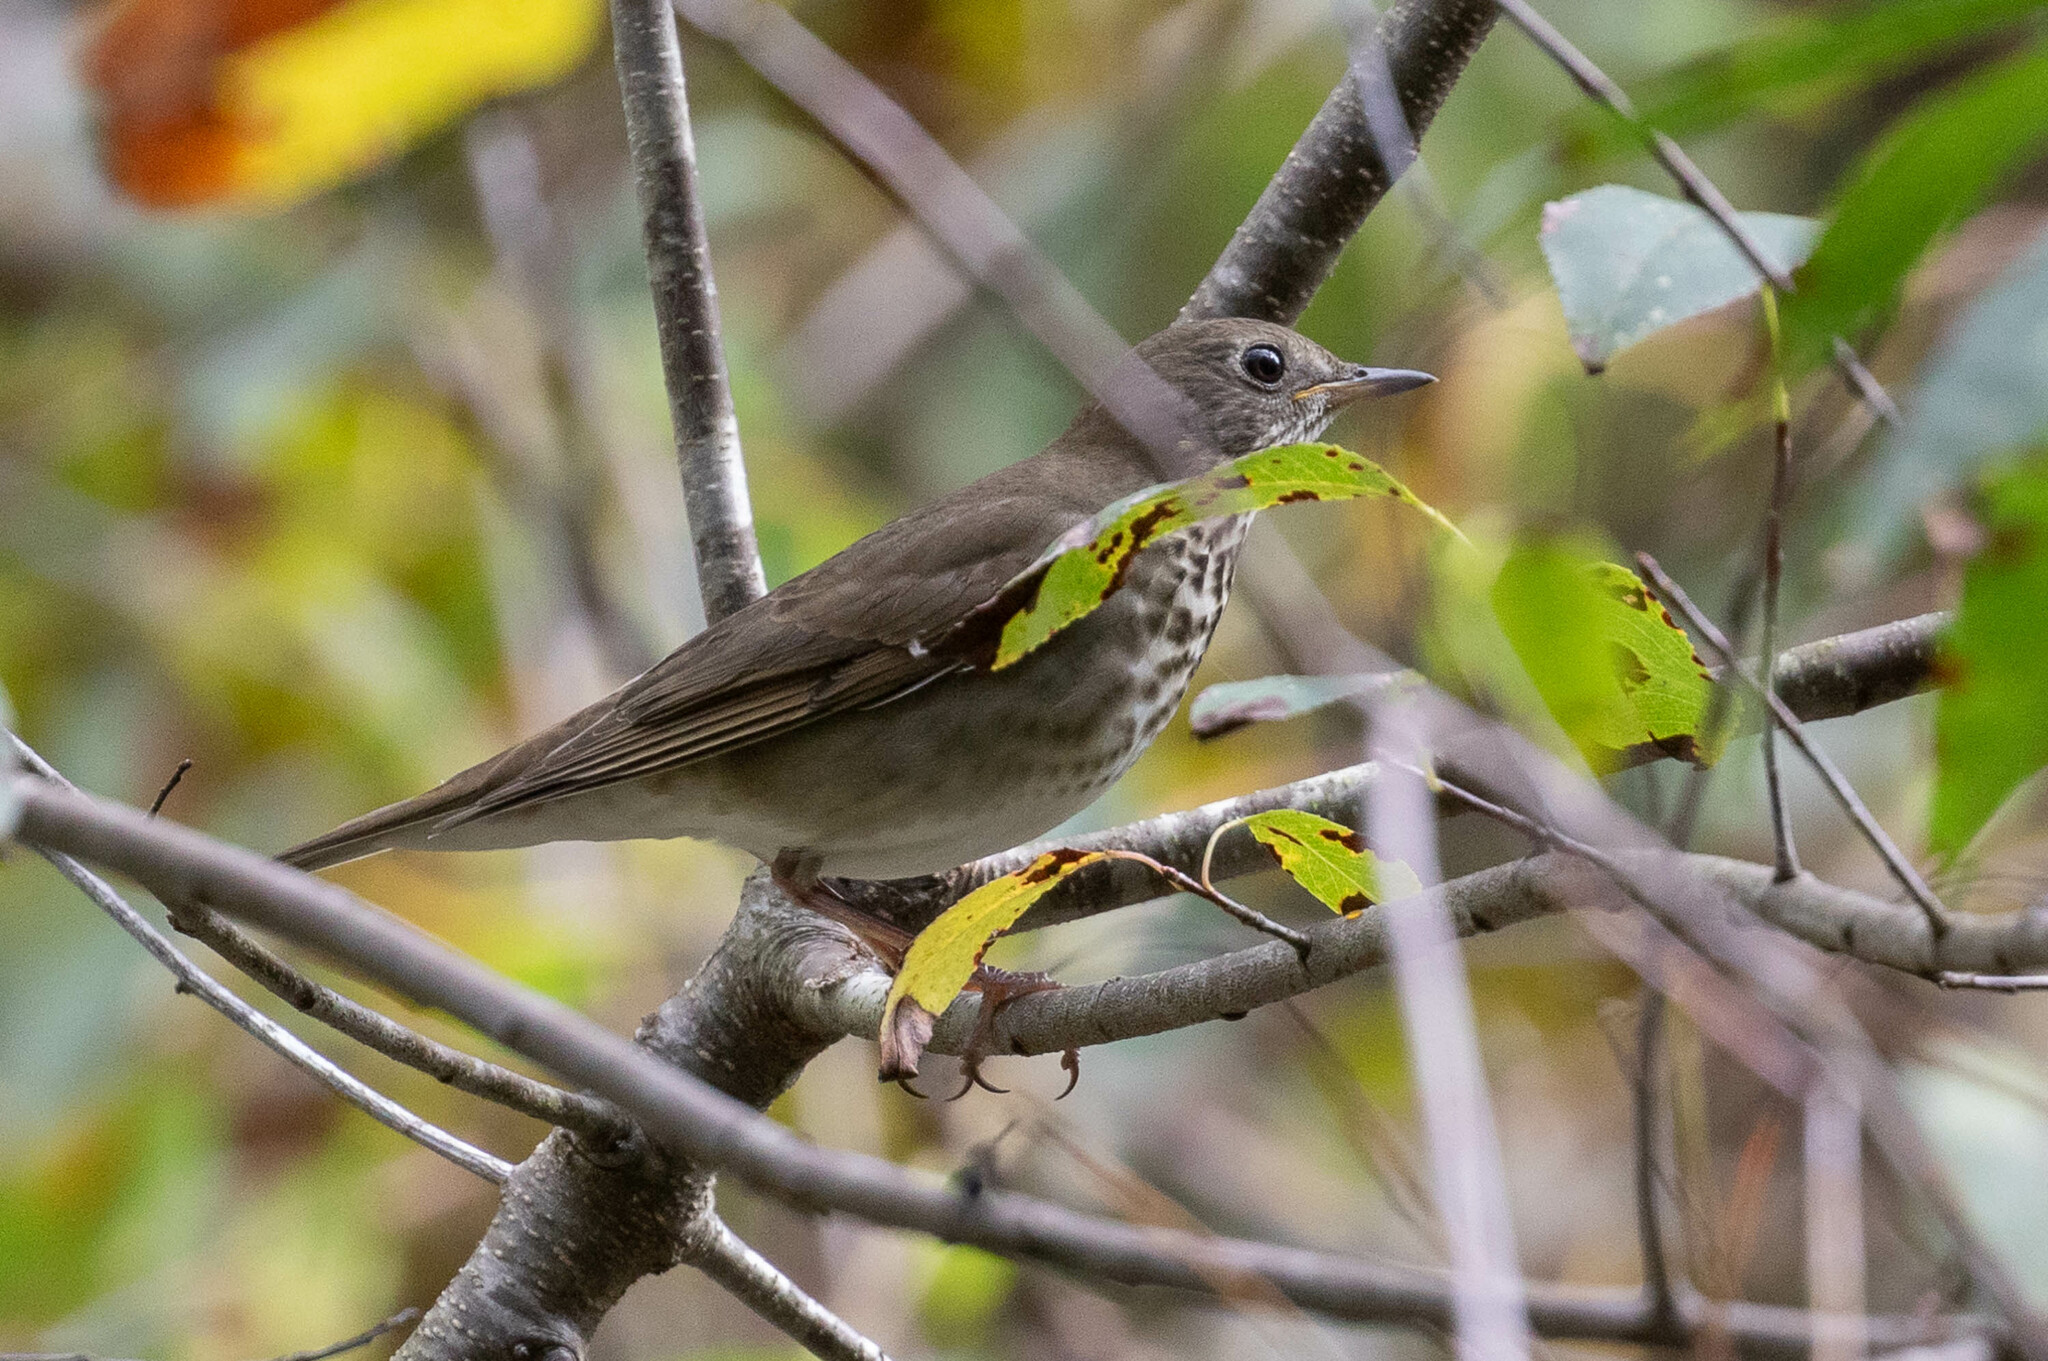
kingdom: Animalia
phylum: Chordata
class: Aves
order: Passeriformes
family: Turdidae
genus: Catharus
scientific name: Catharus minimus
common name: Grey-cheeked thrush
